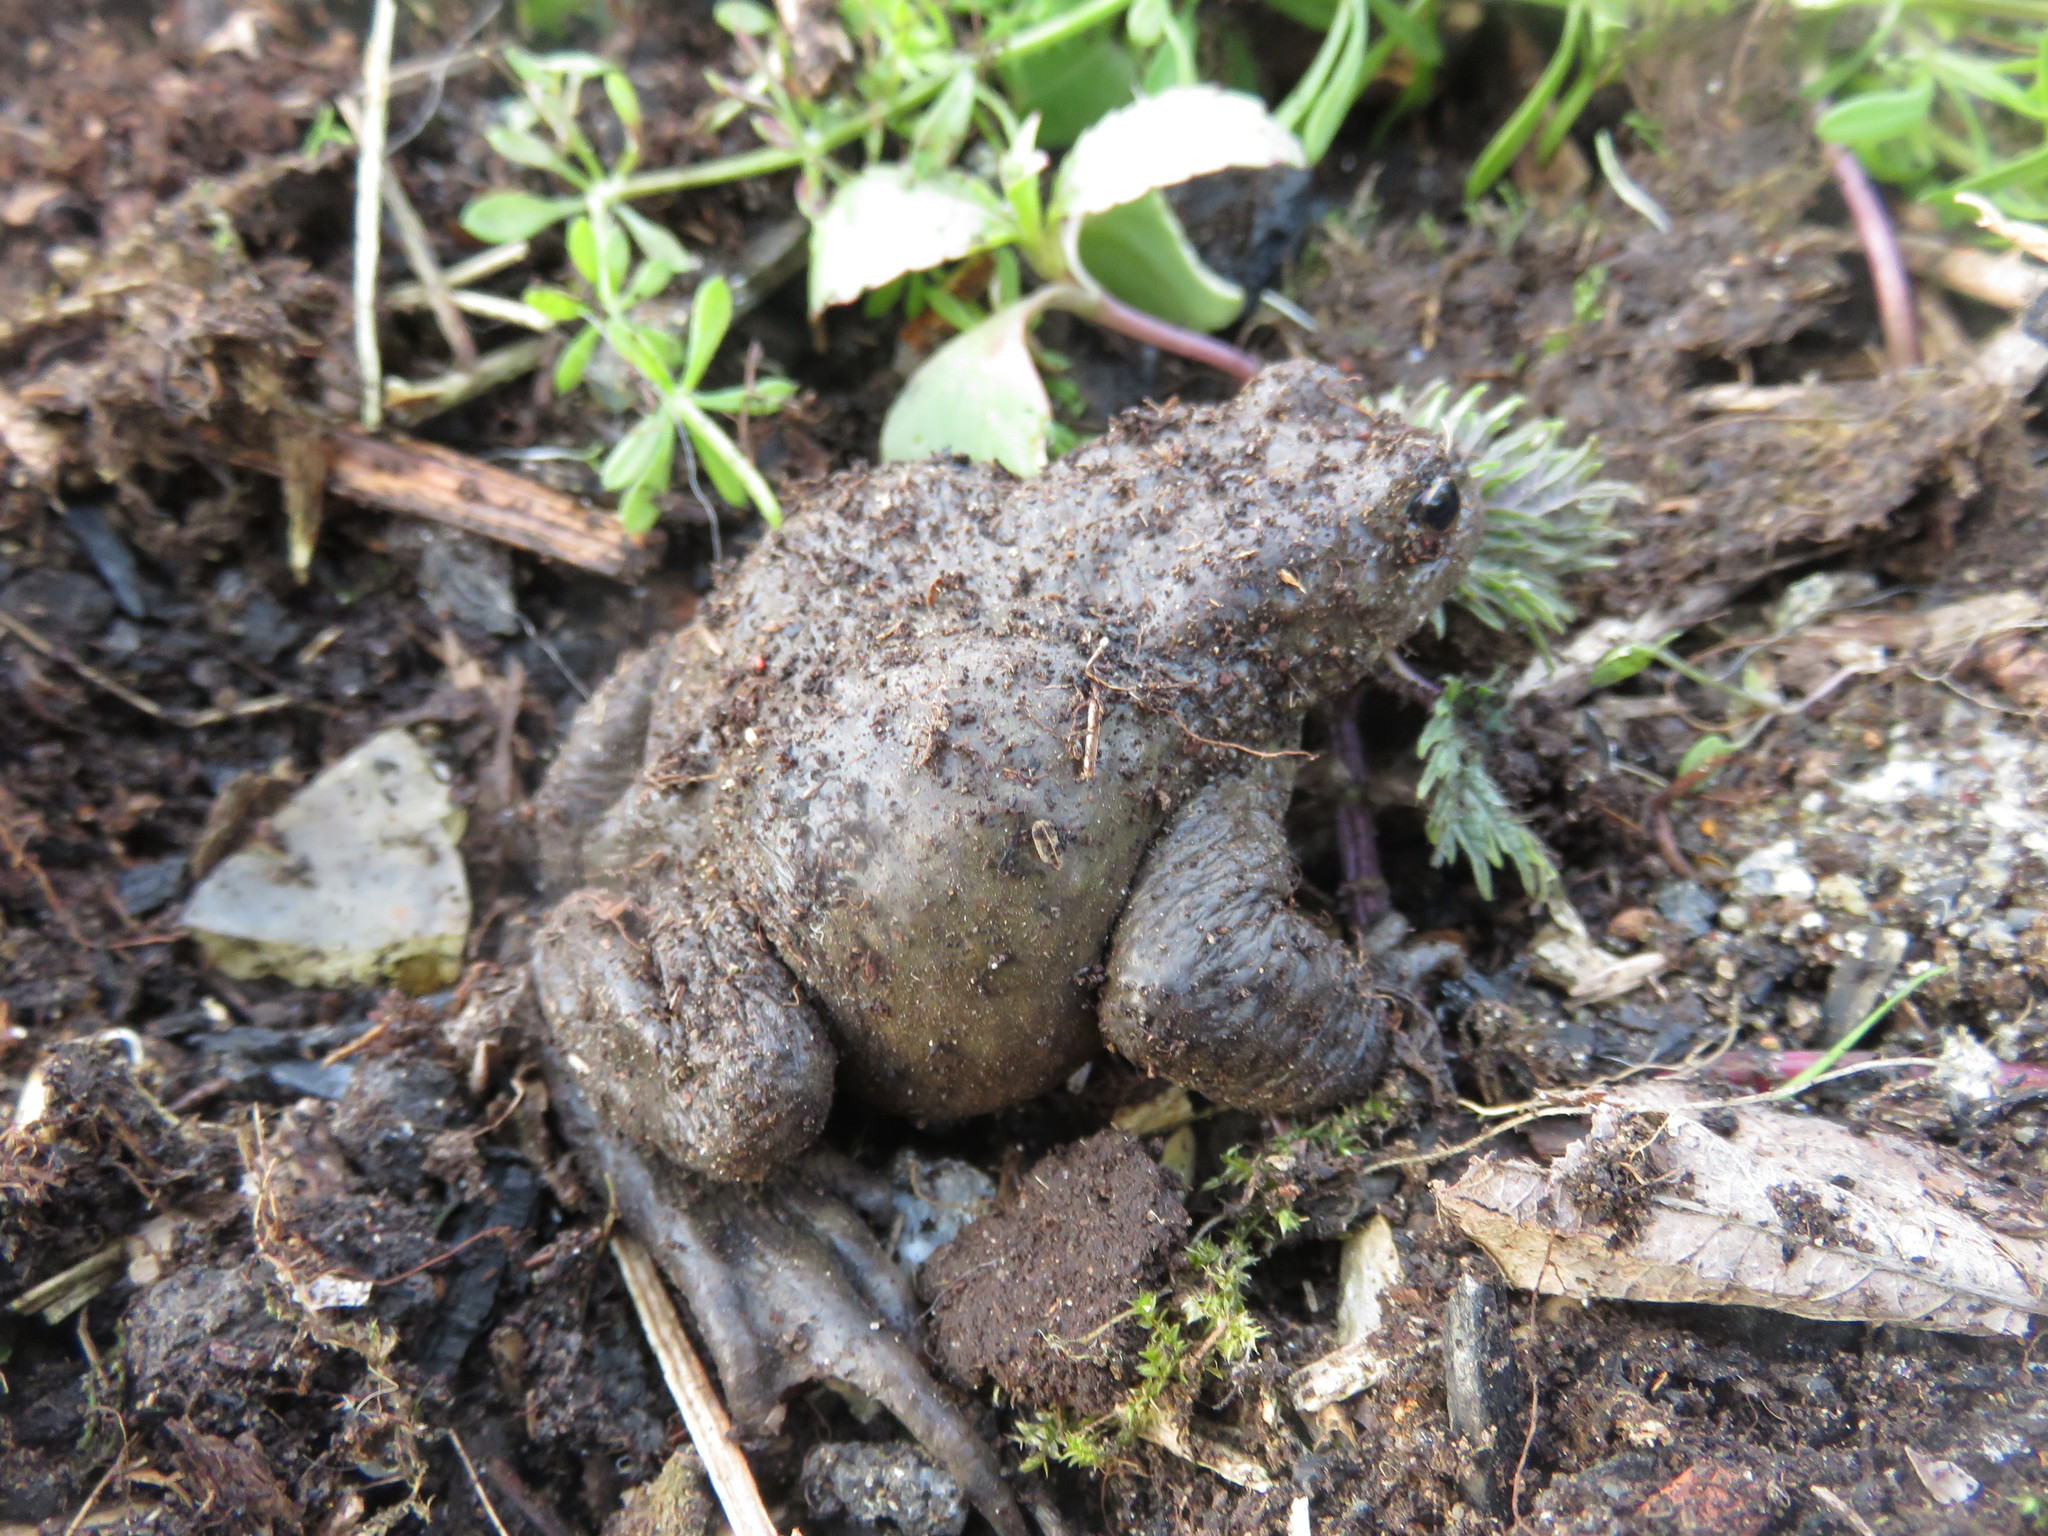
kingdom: Animalia
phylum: Chordata
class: Amphibia
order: Anura
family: Bufonidae
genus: Bufo
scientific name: Bufo bufo
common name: Common toad
